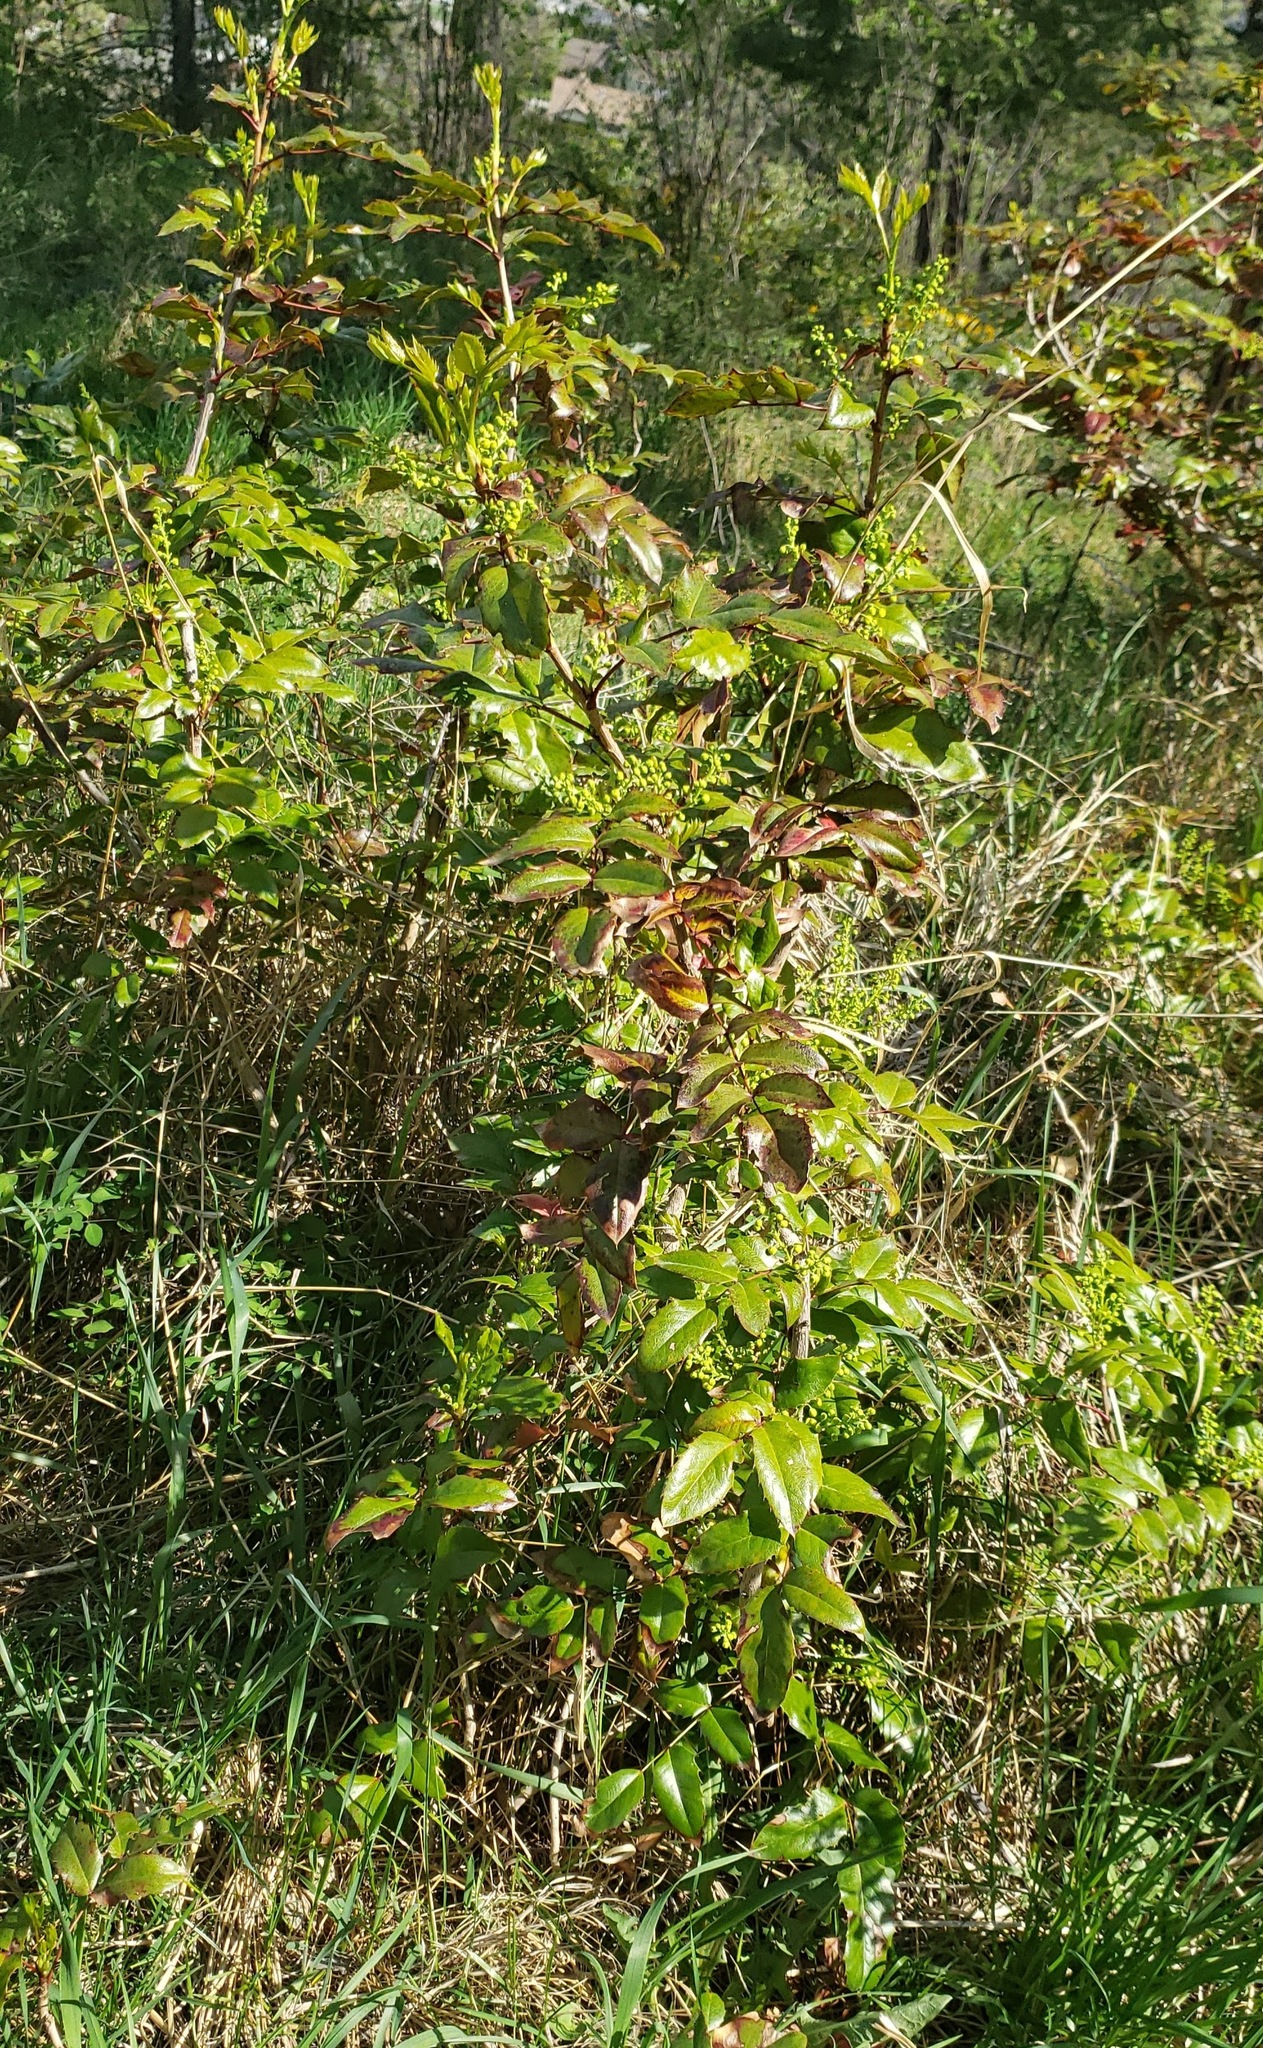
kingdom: Plantae
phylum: Tracheophyta
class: Magnoliopsida
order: Ranunculales
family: Berberidaceae
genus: Mahonia
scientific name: Mahonia aquifolium
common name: Oregon-grape
